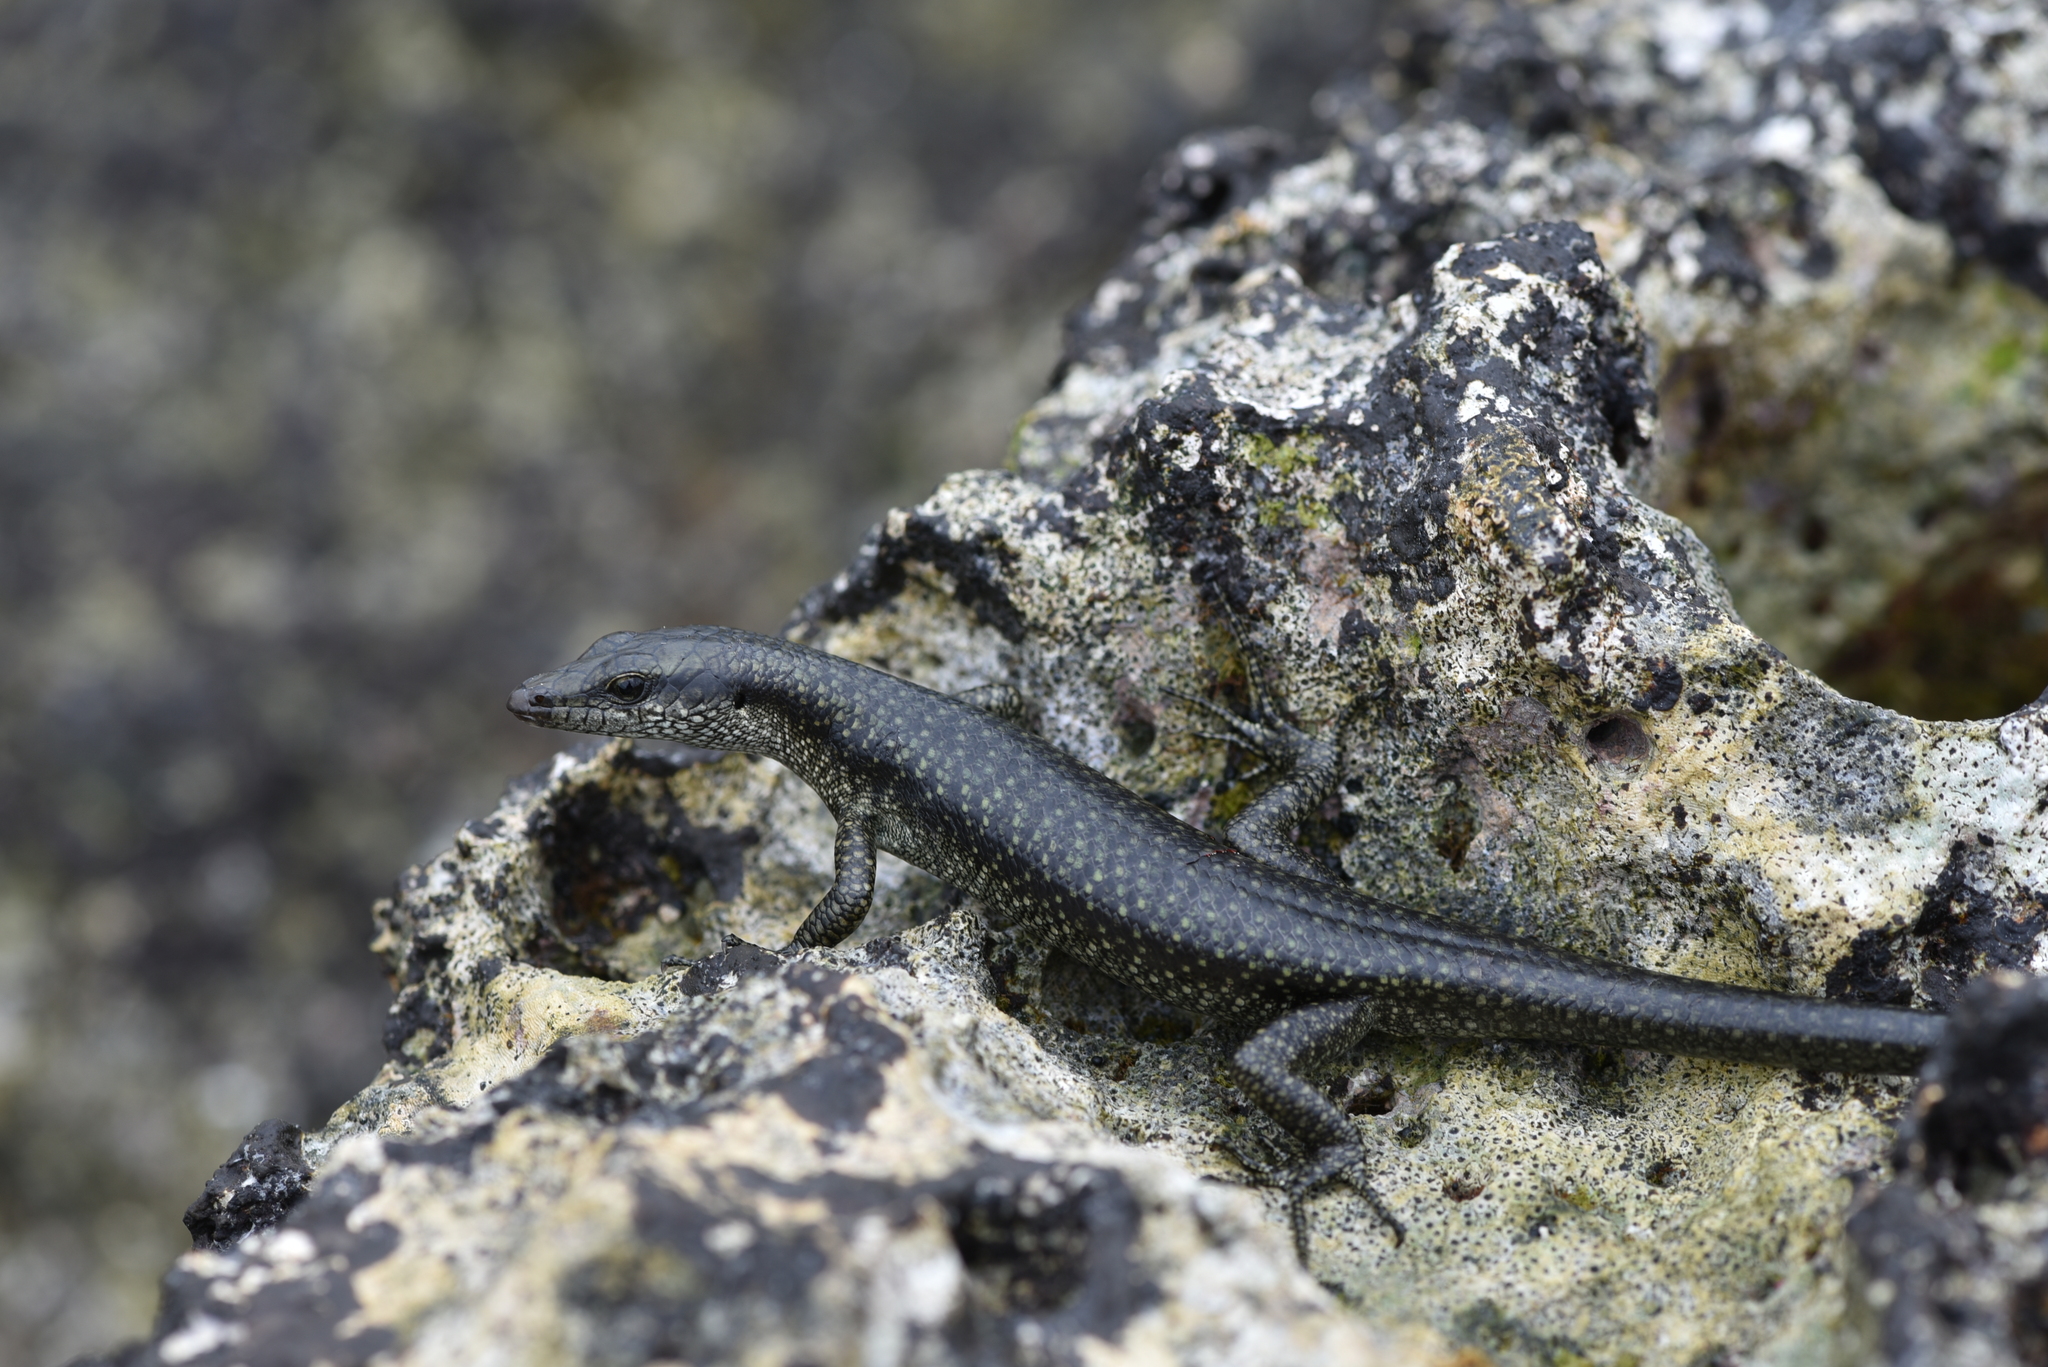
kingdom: Animalia
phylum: Chordata
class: Squamata
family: Scincidae
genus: Emoia
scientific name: Emoia atrocostata
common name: Littoral skink
